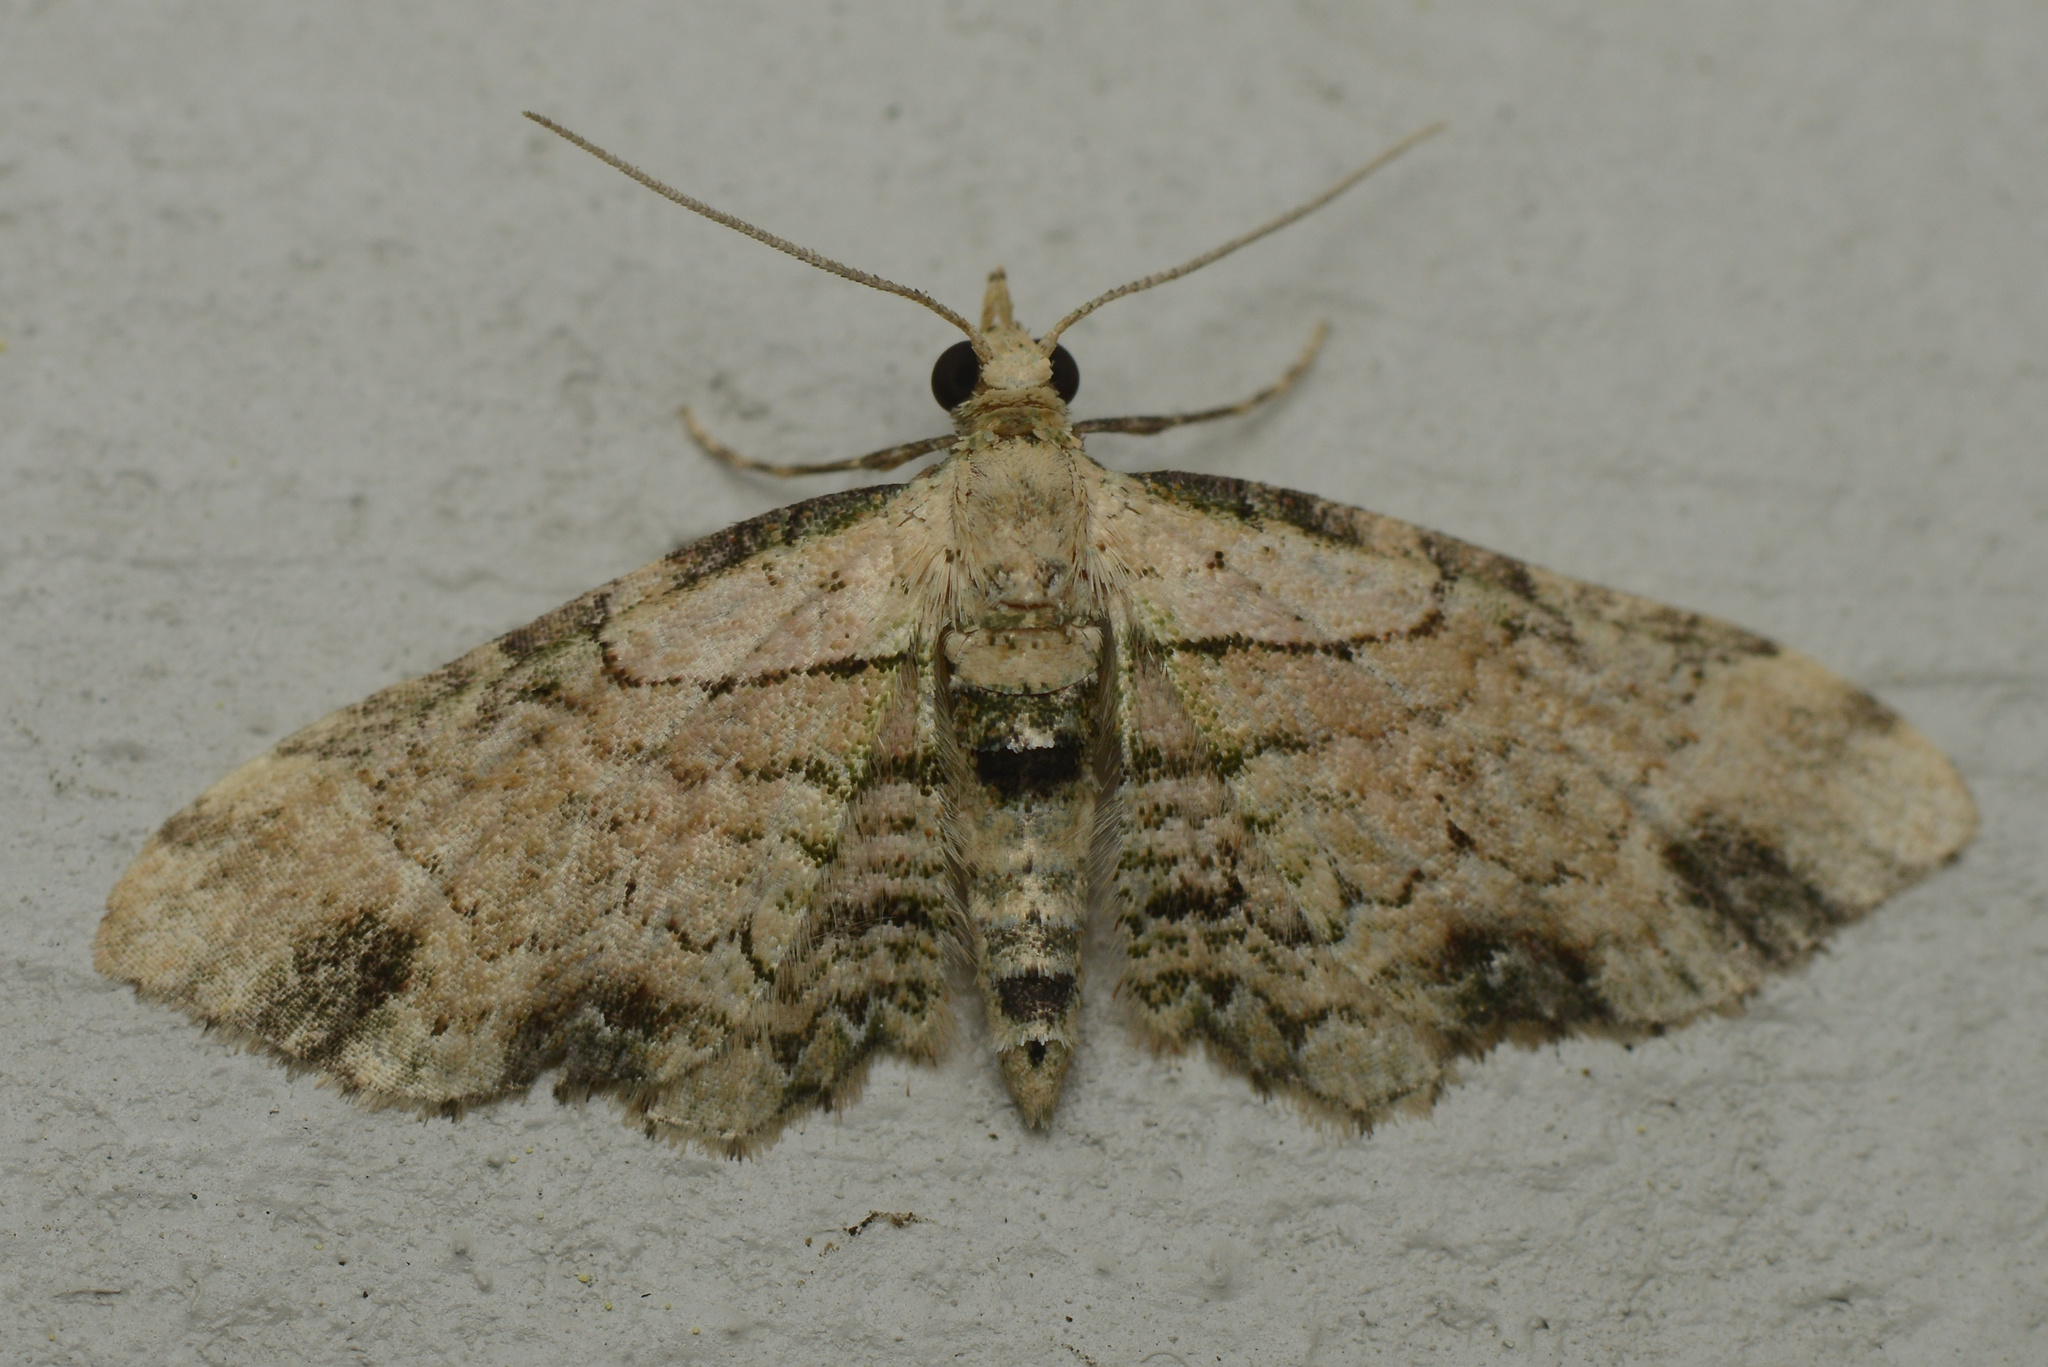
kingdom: Animalia
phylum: Arthropoda
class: Insecta
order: Lepidoptera
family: Geometridae
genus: Chloroclystis
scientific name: Chloroclystis
